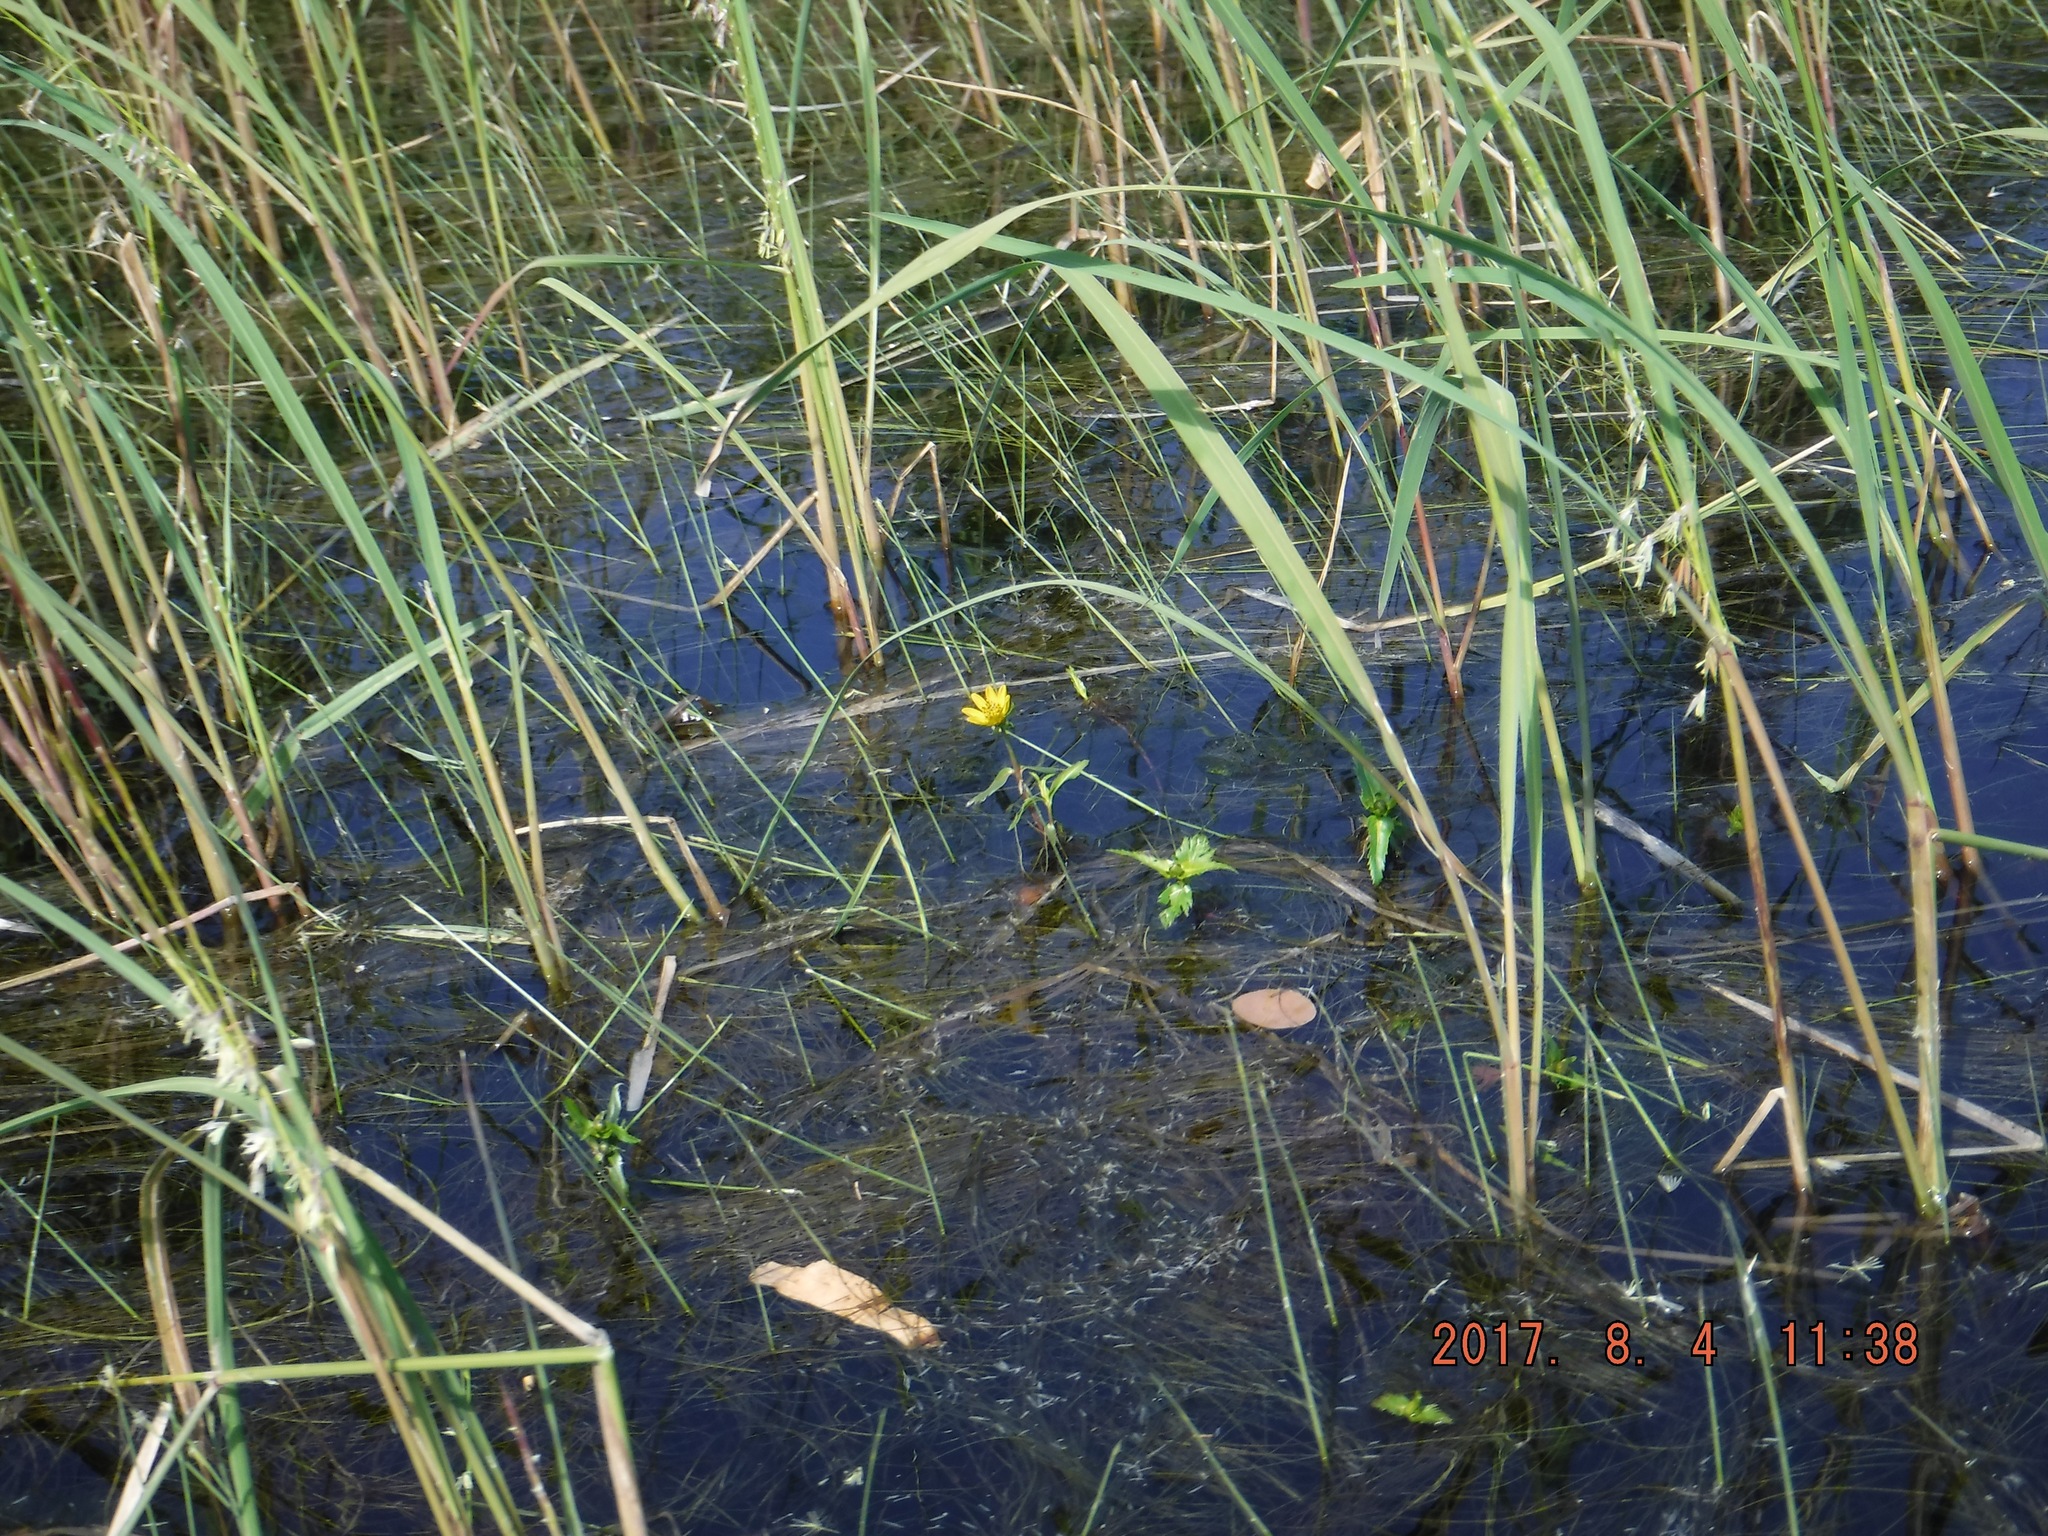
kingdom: Plantae
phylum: Tracheophyta
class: Magnoliopsida
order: Asterales
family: Asteraceae
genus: Bidens
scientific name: Bidens beckii
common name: Beck's beggarticks
